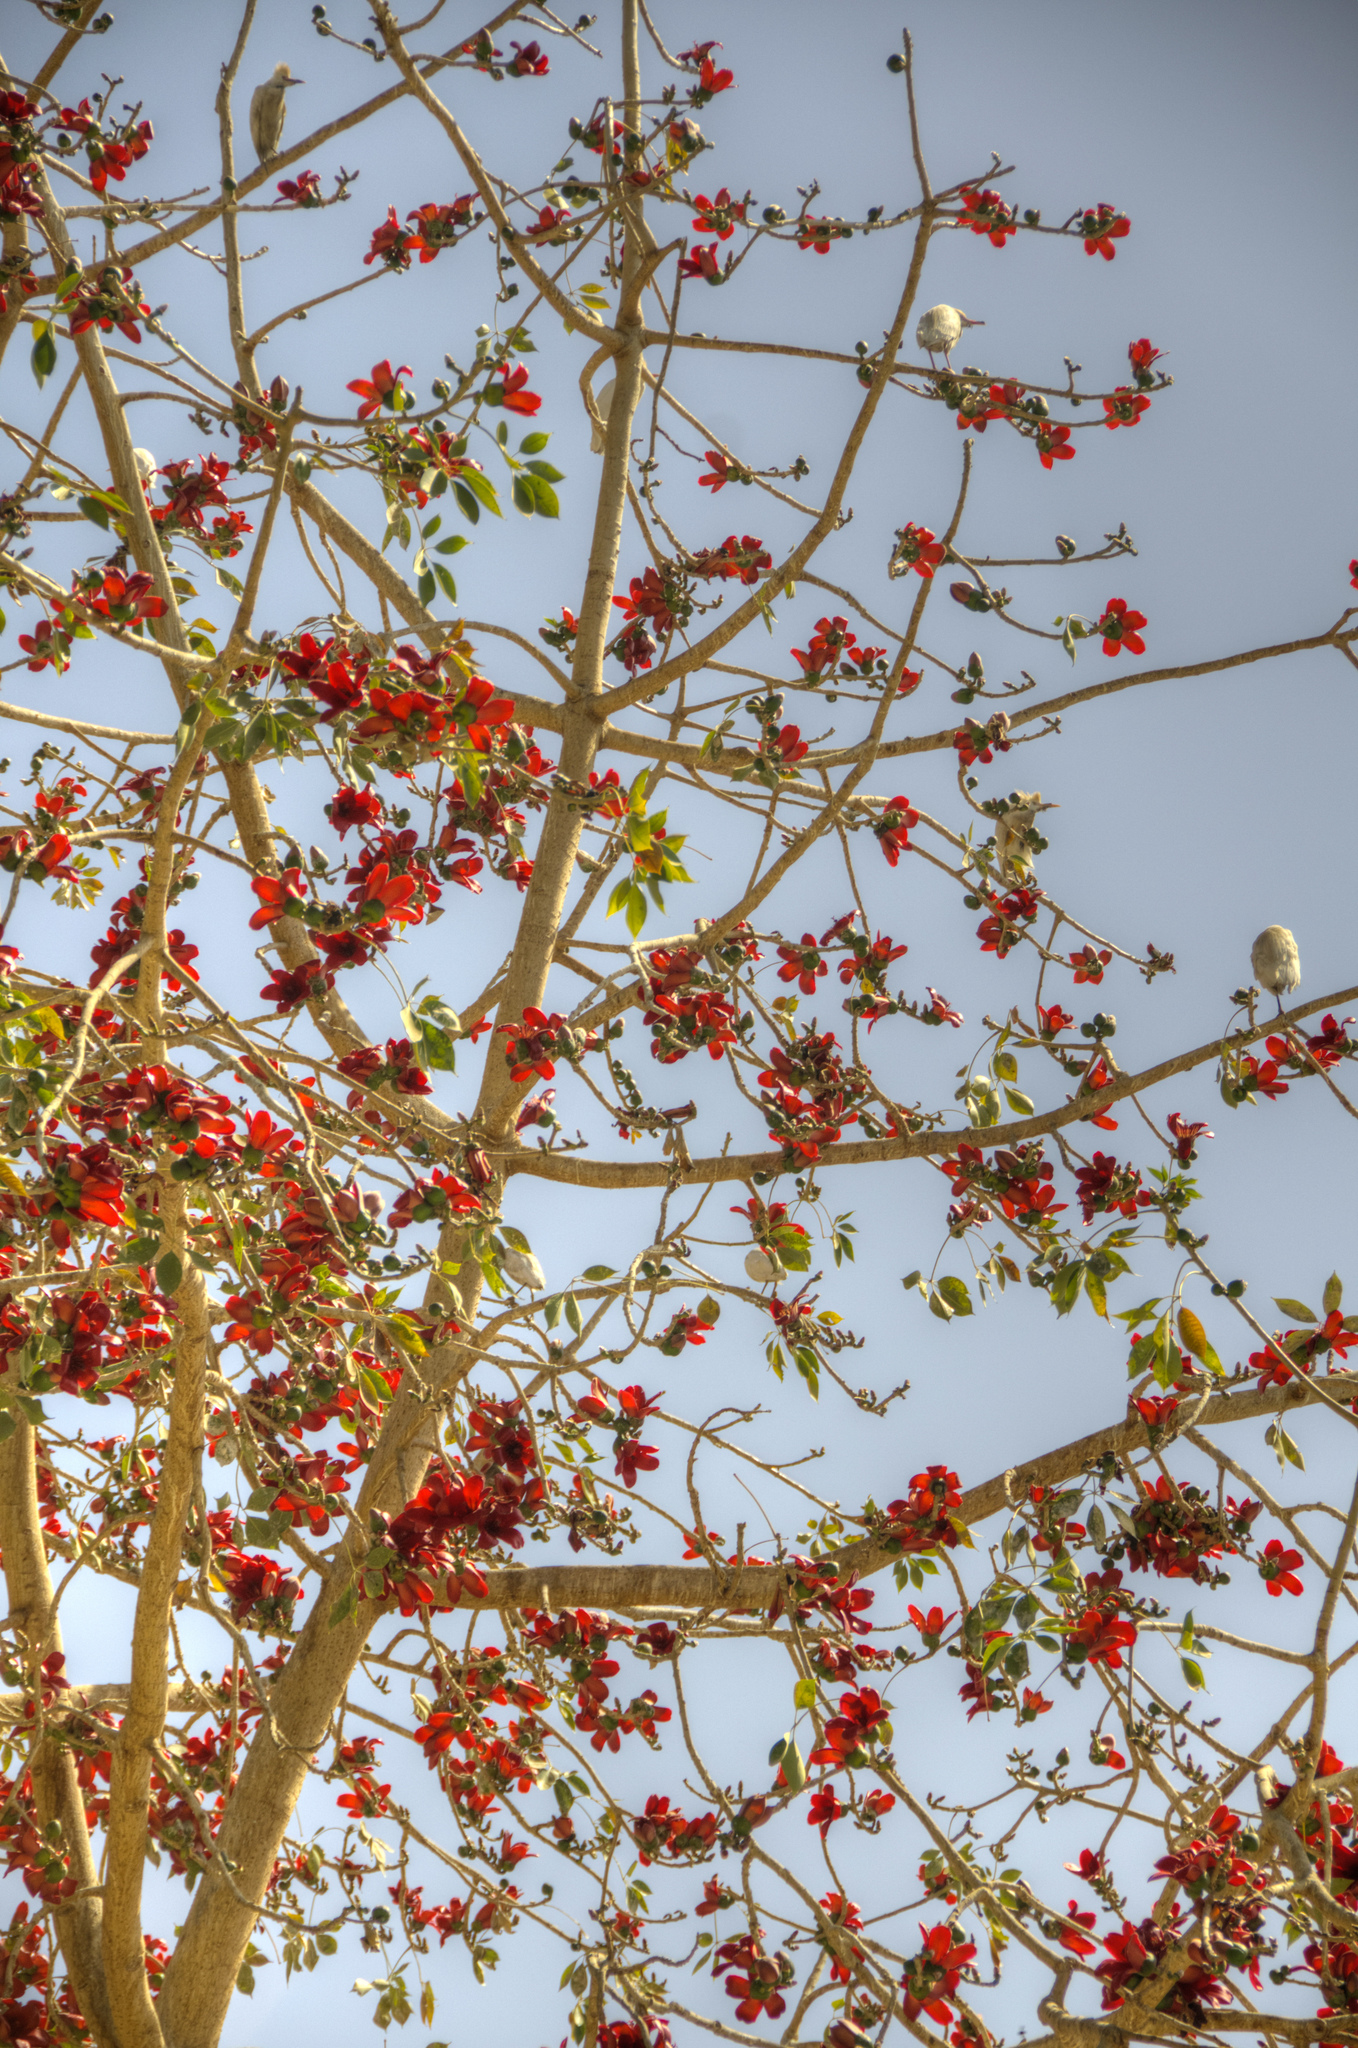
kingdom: Animalia
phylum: Chordata
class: Aves
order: Pelecaniformes
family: Ardeidae
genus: Bubulcus
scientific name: Bubulcus ibis
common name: Cattle egret
